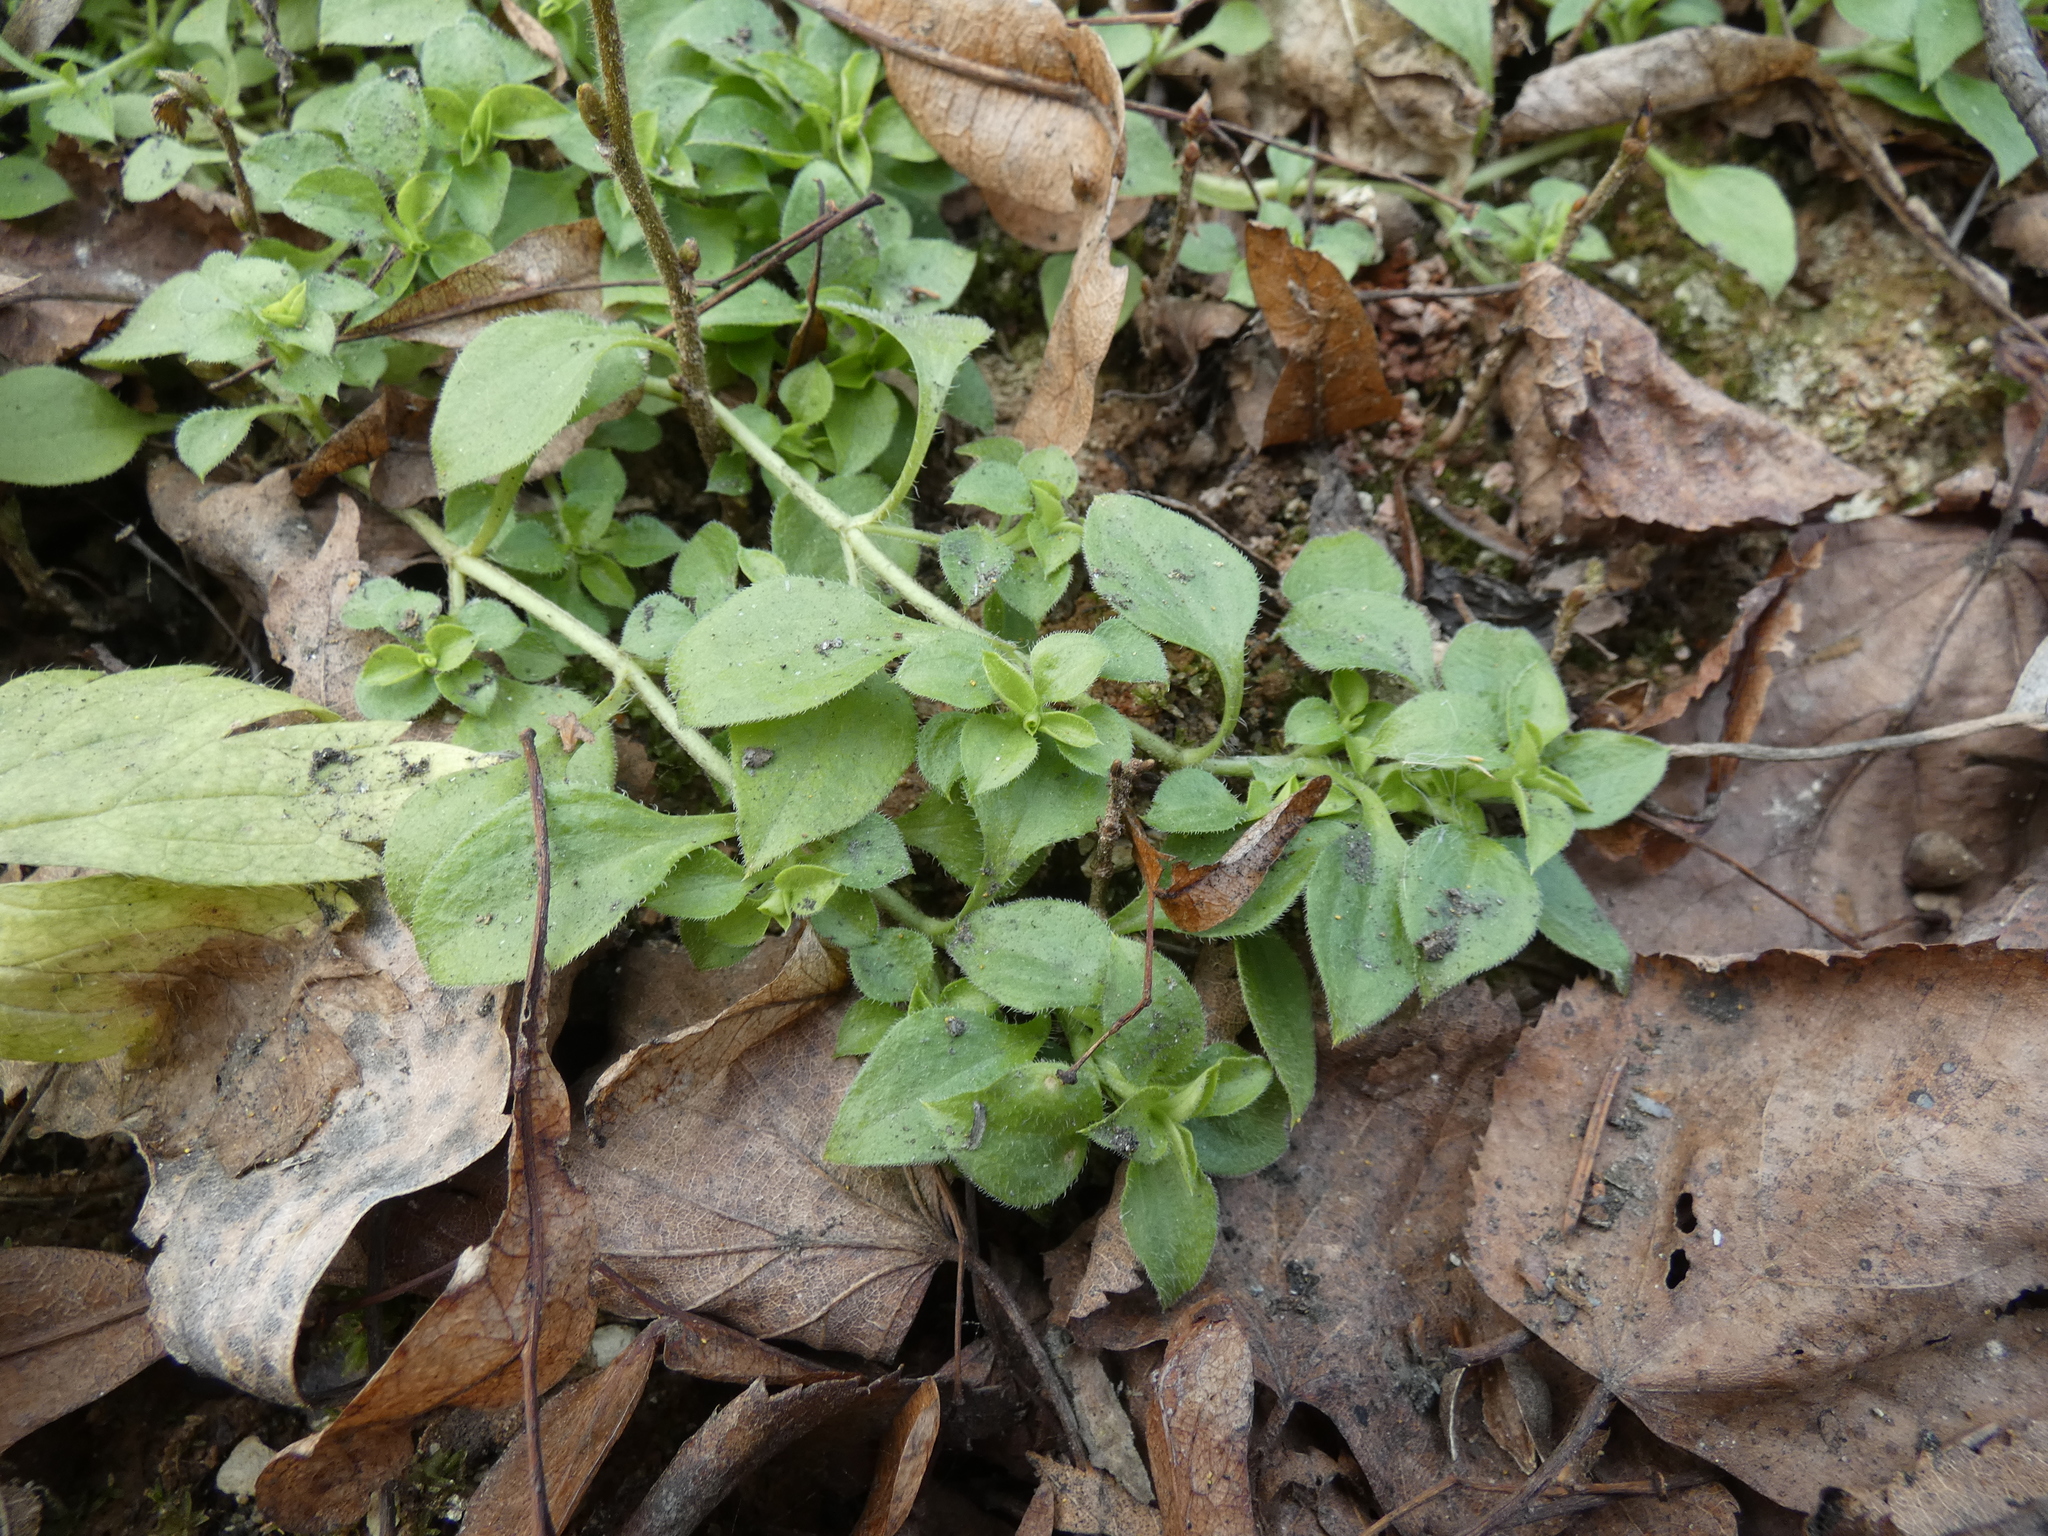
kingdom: Plantae
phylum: Tracheophyta
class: Magnoliopsida
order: Caryophyllales
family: Caryophyllaceae
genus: Moehringia
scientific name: Moehringia trinervia
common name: Three-nerved sandwort
